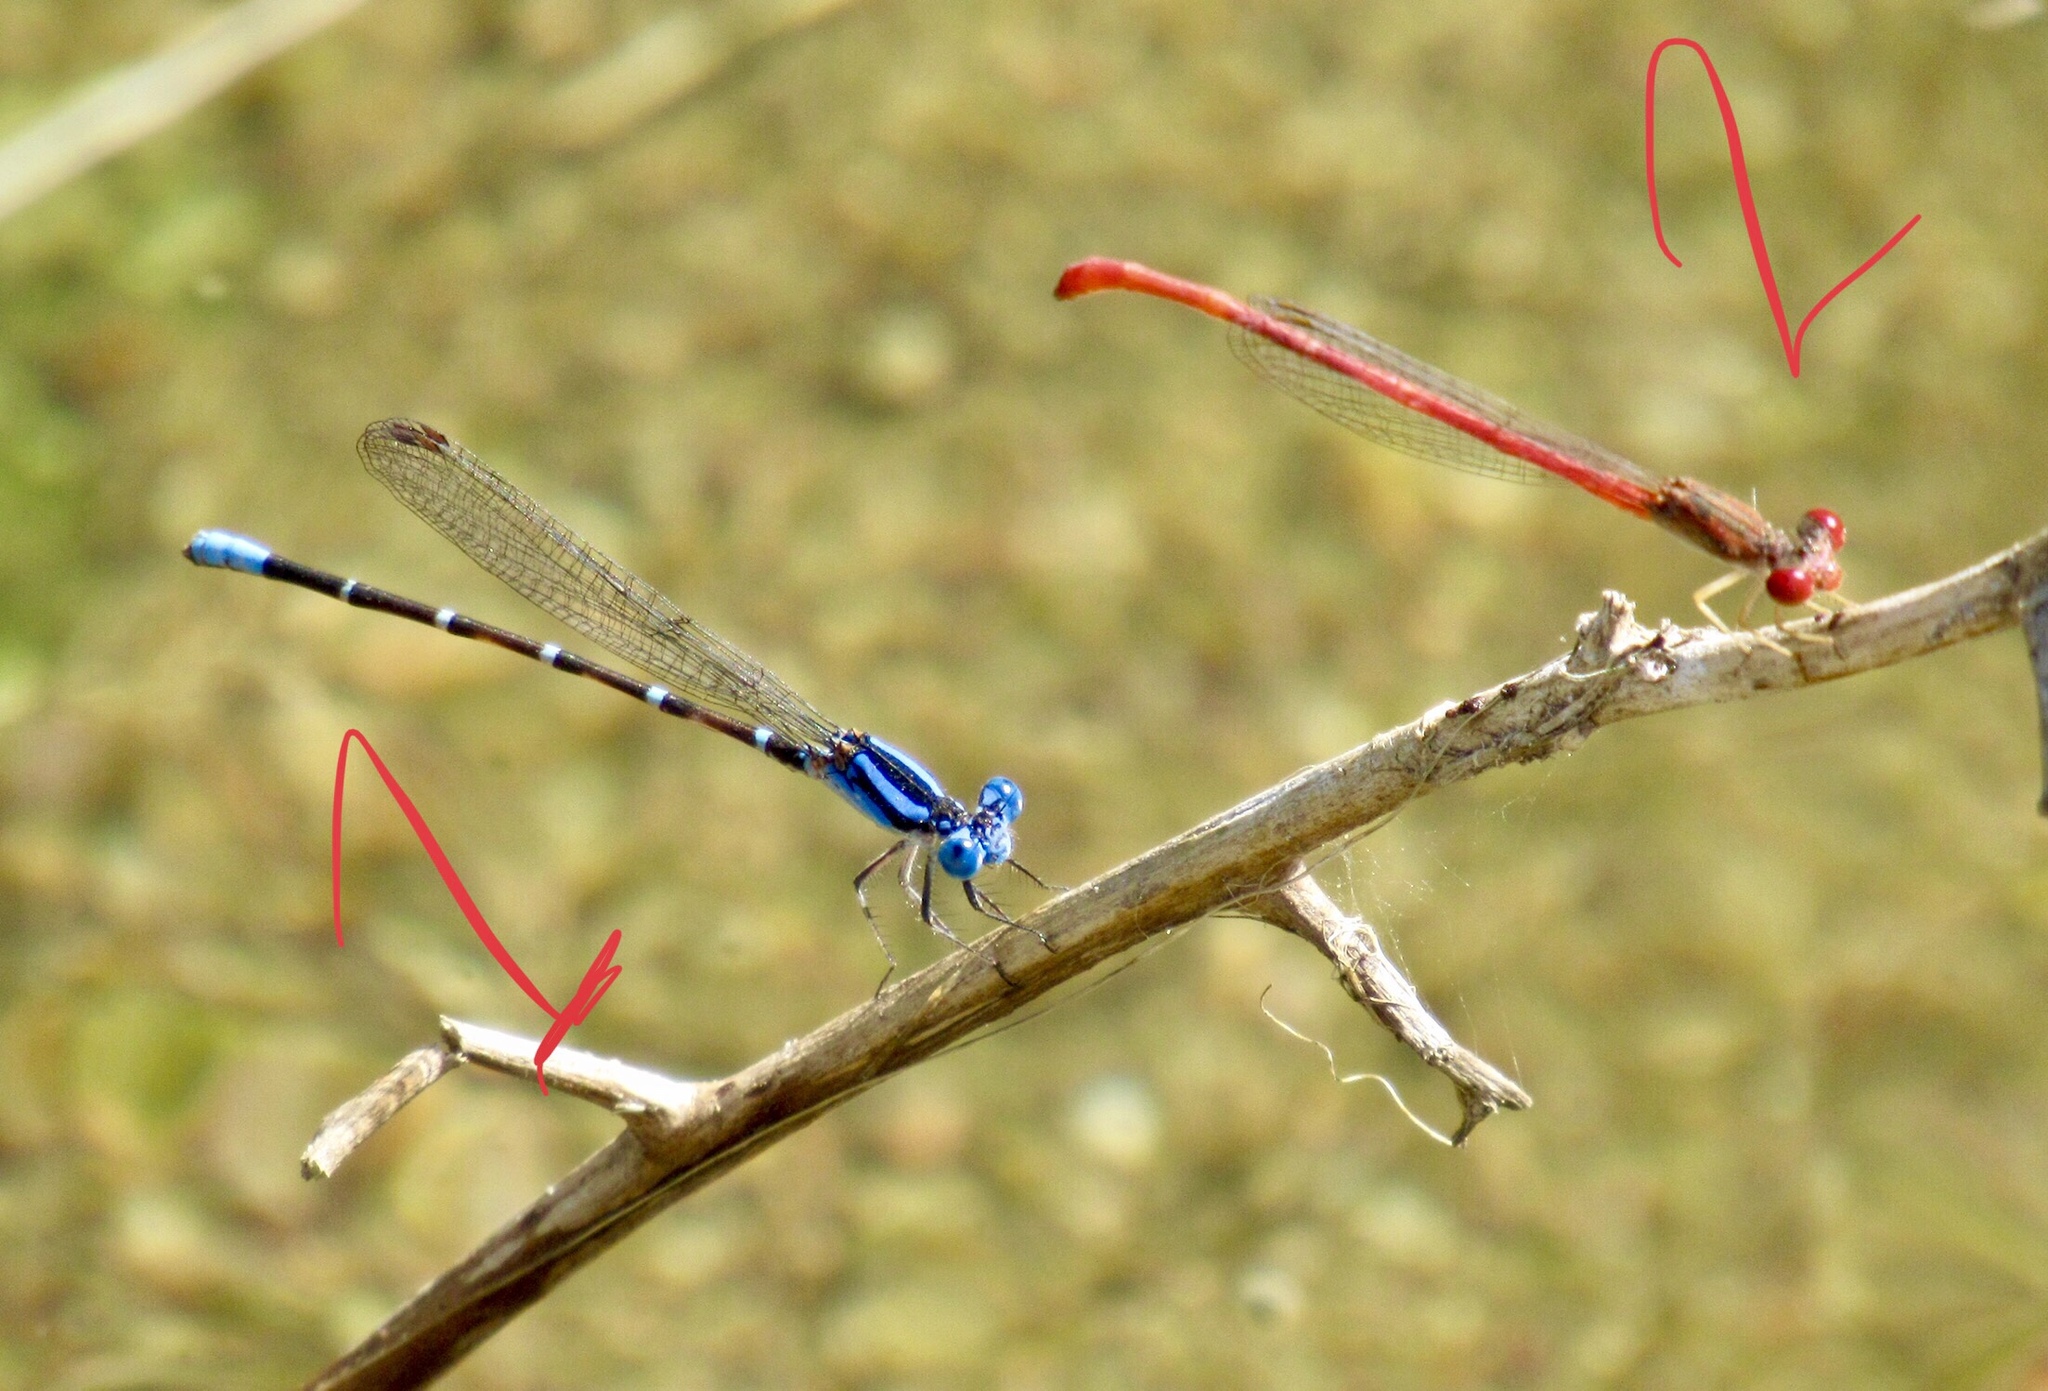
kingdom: Animalia
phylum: Arthropoda
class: Insecta
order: Odonata
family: Coenagrionidae
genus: Argia
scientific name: Argia sedula
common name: Blue-ringed dancer
